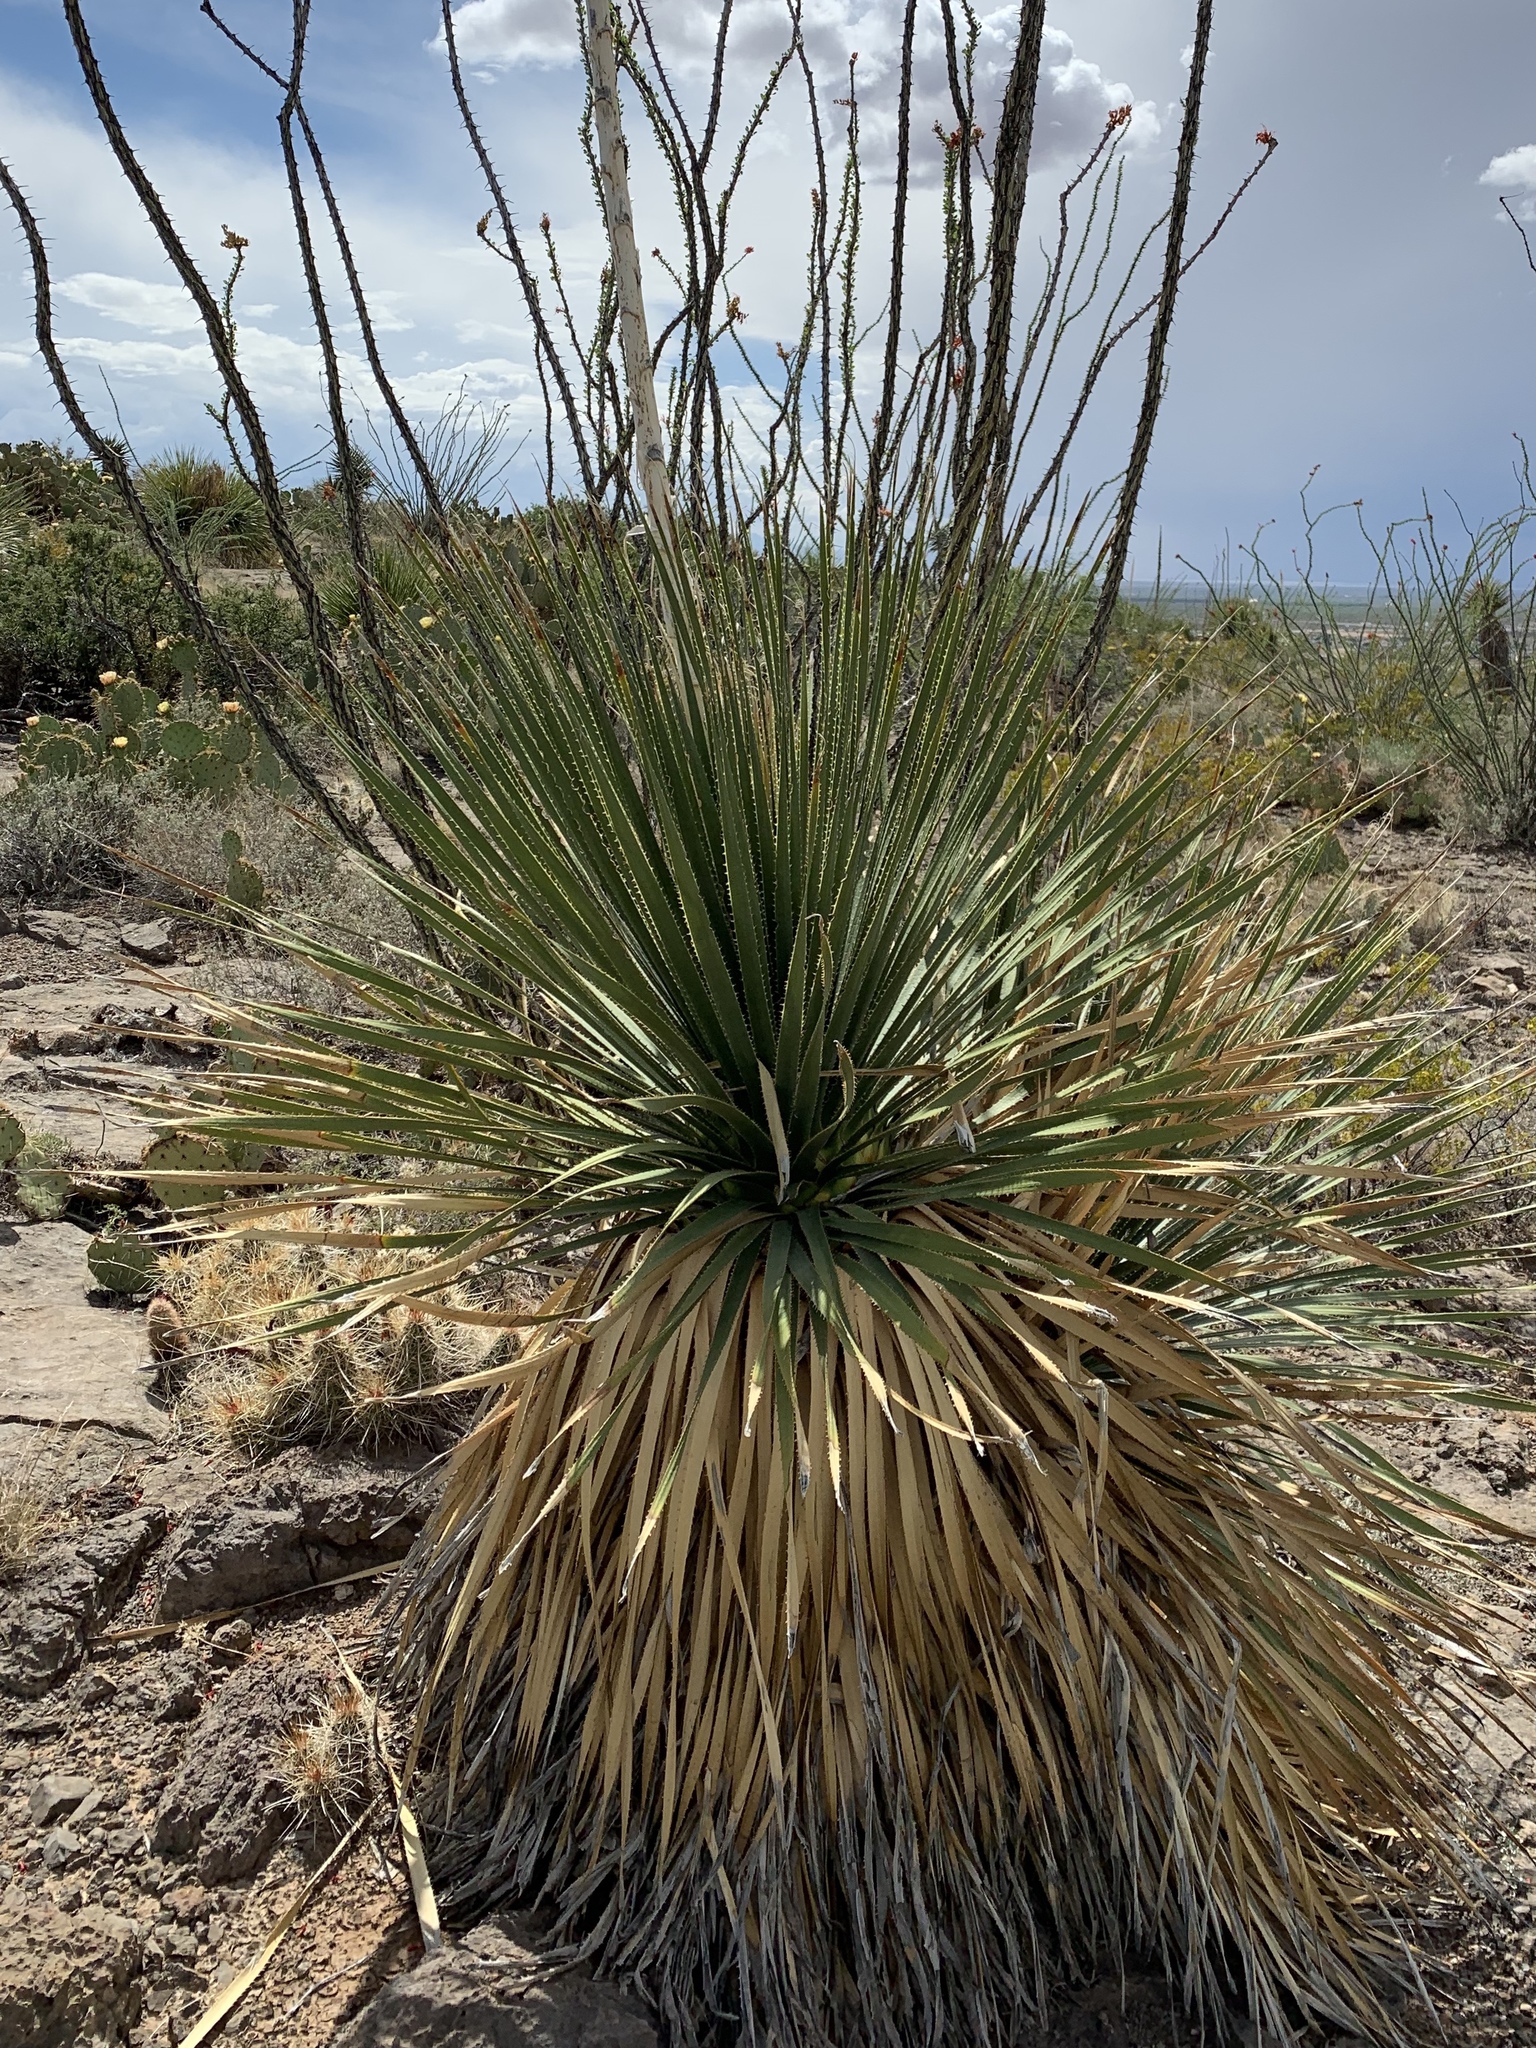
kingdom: Plantae
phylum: Tracheophyta
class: Liliopsida
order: Asparagales
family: Asparagaceae
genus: Dasylirion
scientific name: Dasylirion wheeleri
